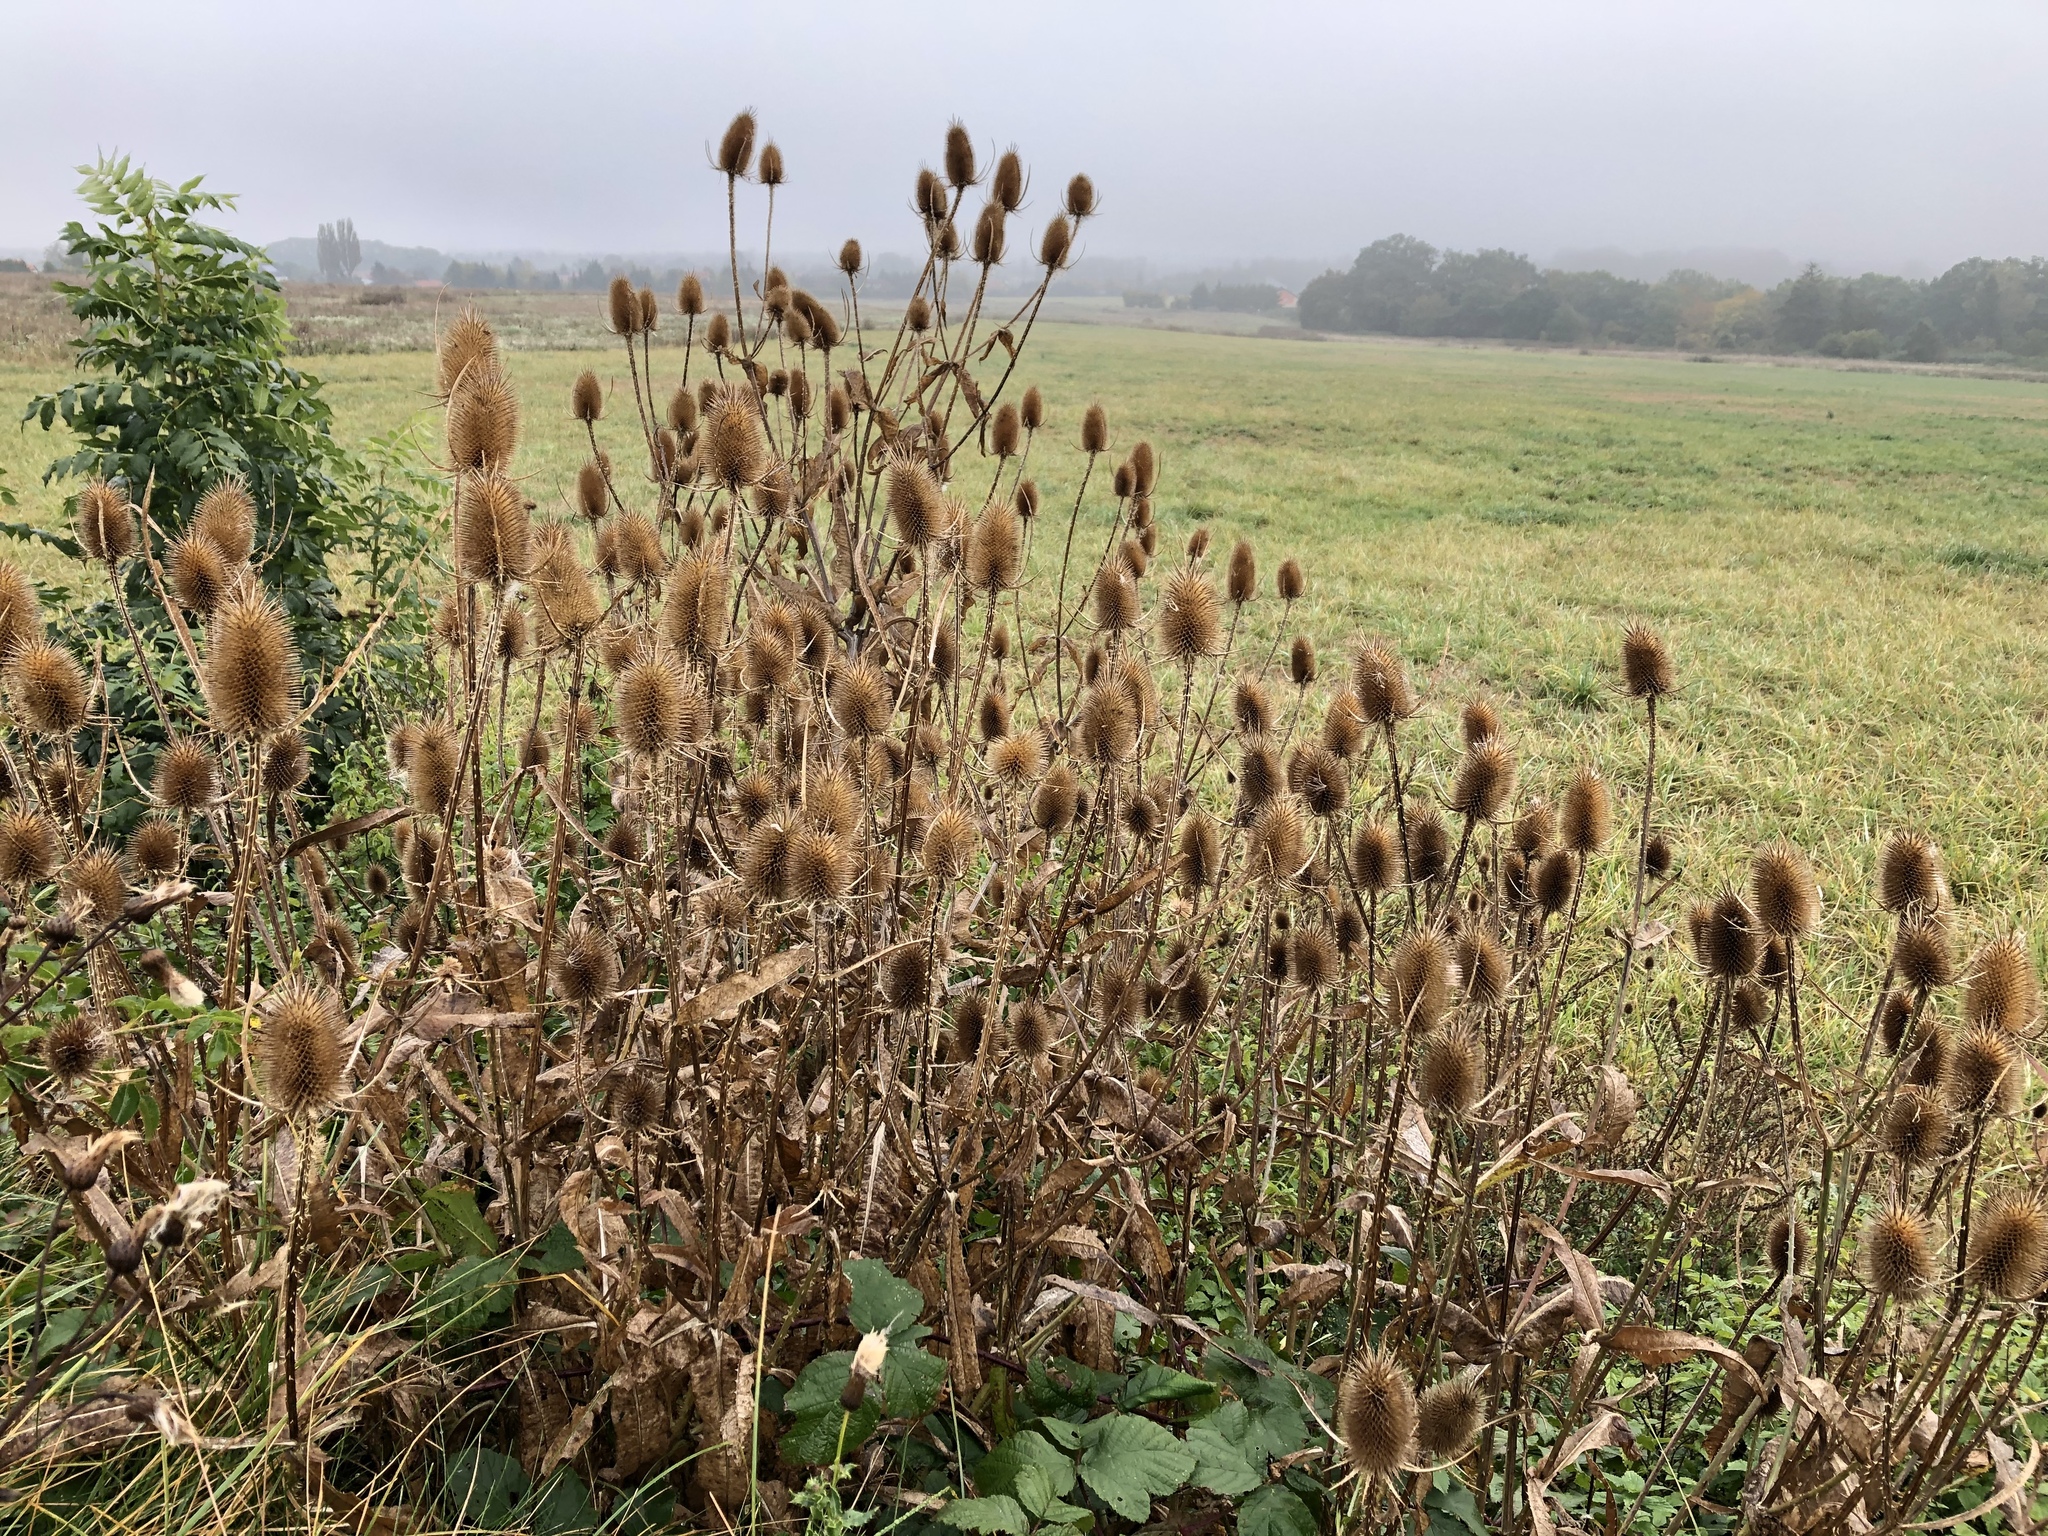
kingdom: Plantae
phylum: Tracheophyta
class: Magnoliopsida
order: Dipsacales
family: Caprifoliaceae
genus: Dipsacus
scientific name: Dipsacus fullonum
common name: Teasel
